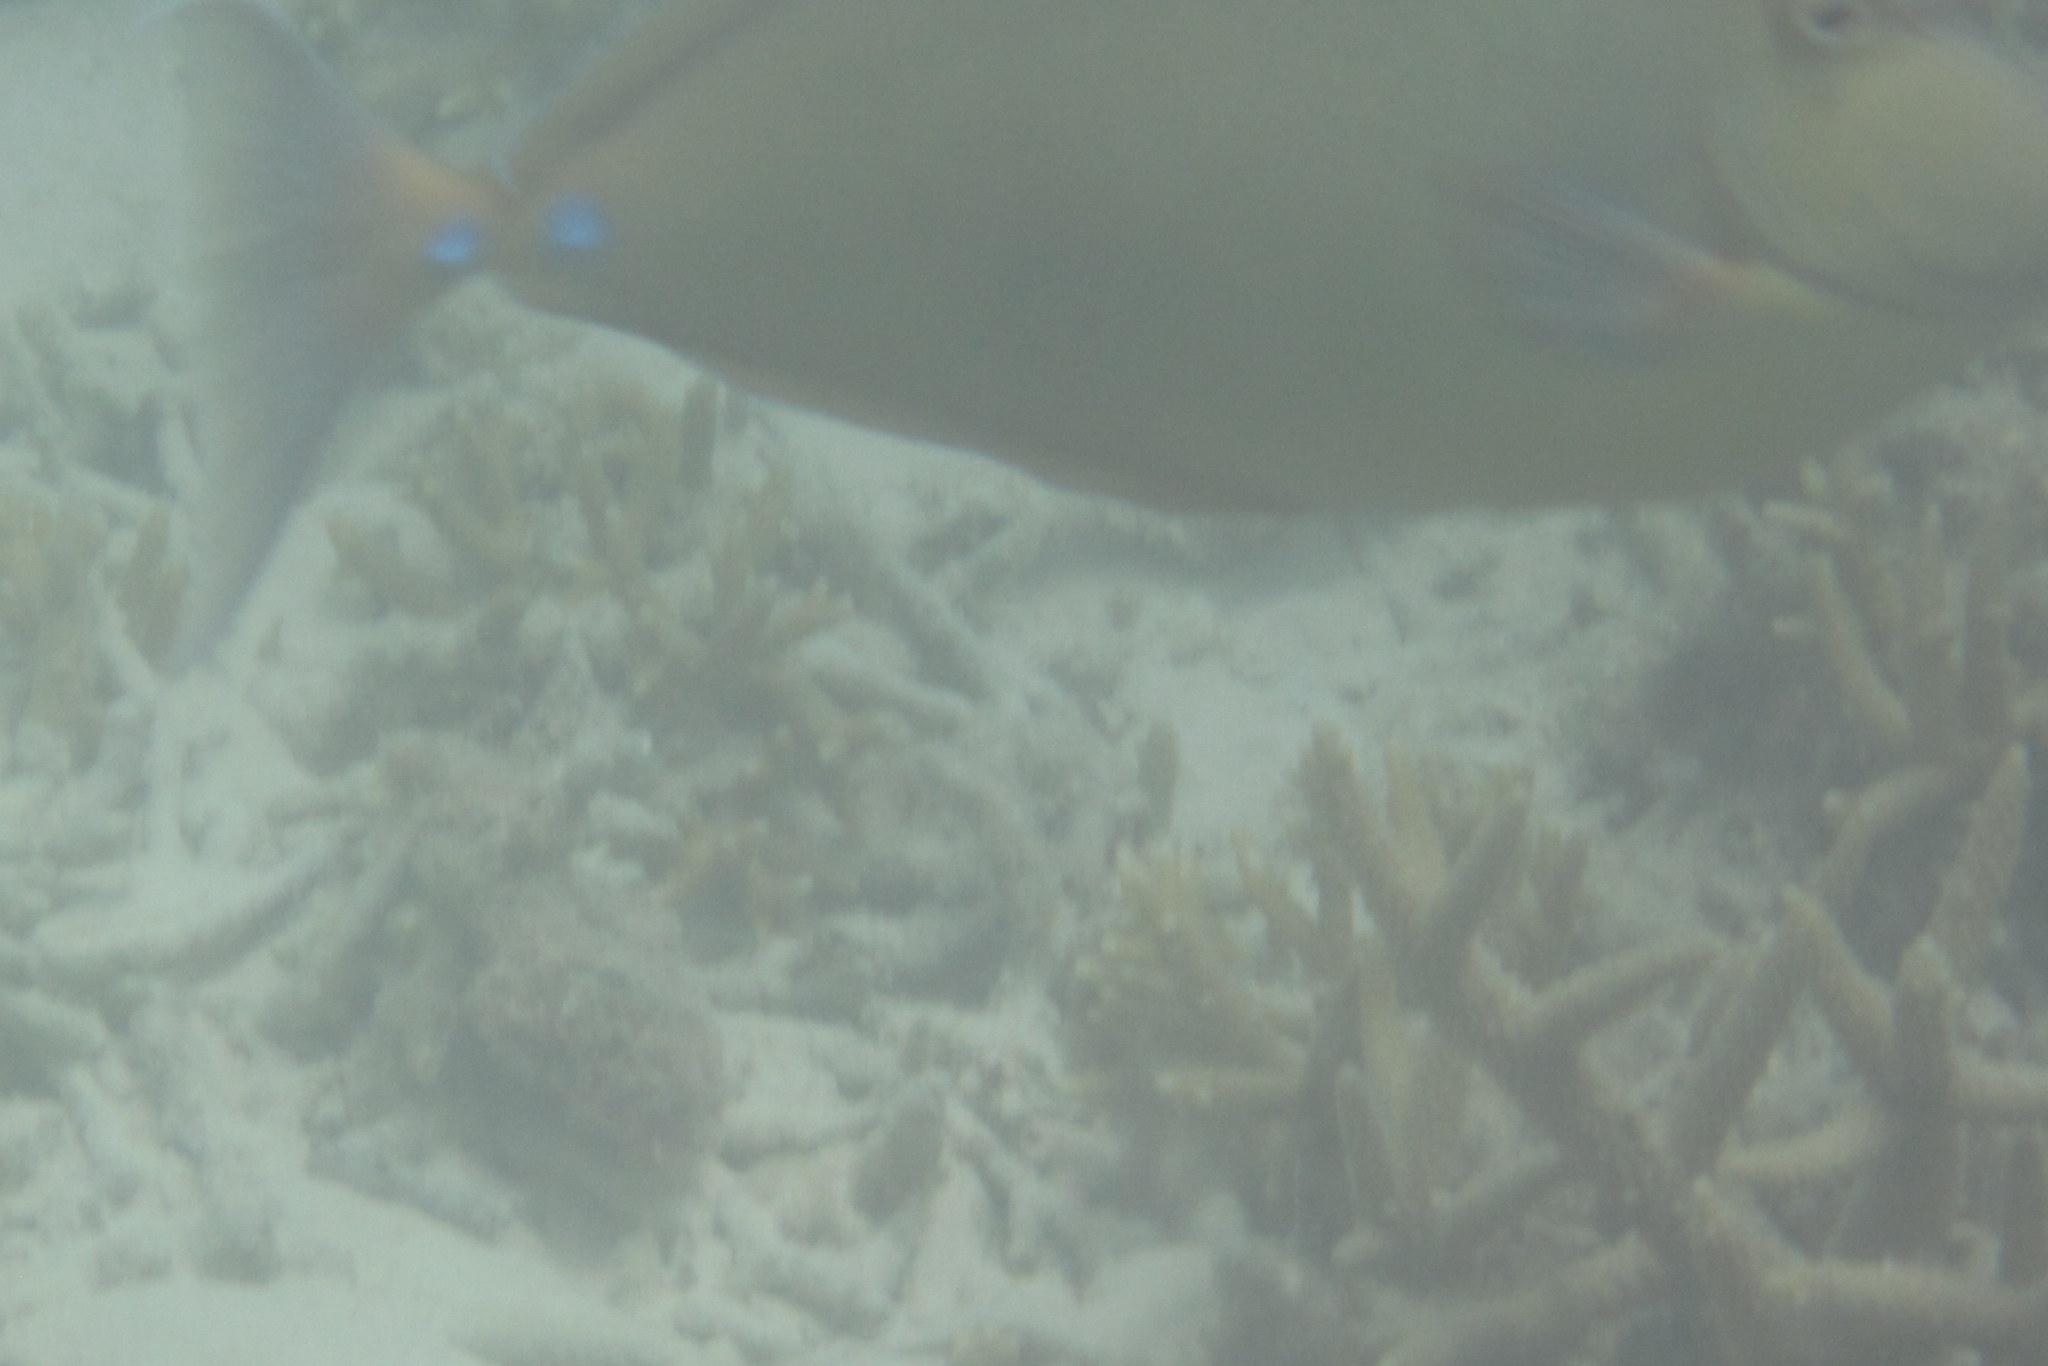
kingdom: Animalia
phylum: Chordata
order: Perciformes
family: Acanthuridae
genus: Naso
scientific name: Naso unicornis
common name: Bluespine unicornfish
